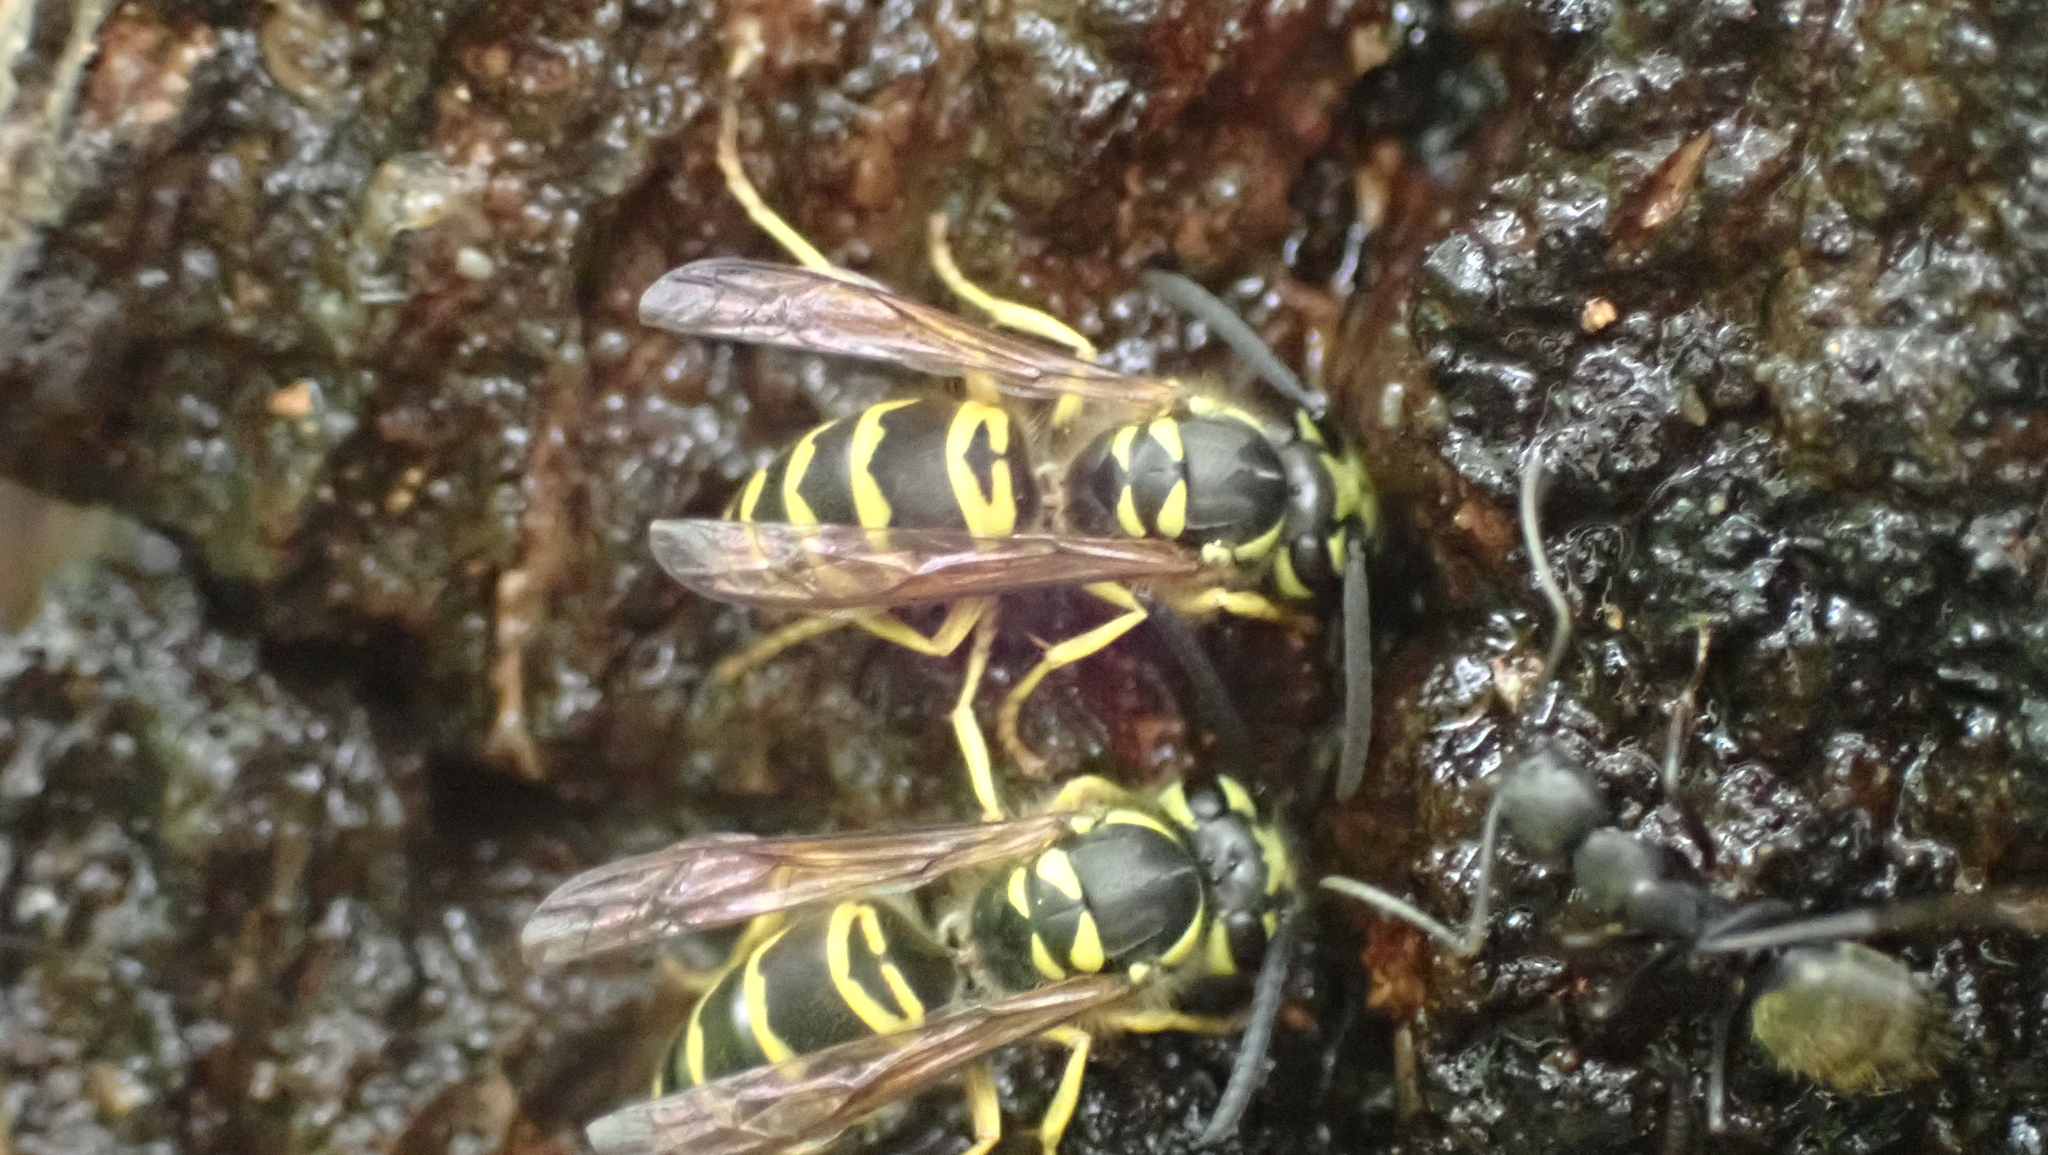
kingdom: Animalia
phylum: Arthropoda
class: Insecta
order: Hymenoptera
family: Vespidae
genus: Vespula
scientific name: Vespula maculifrons
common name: Eastern yellowjacket
